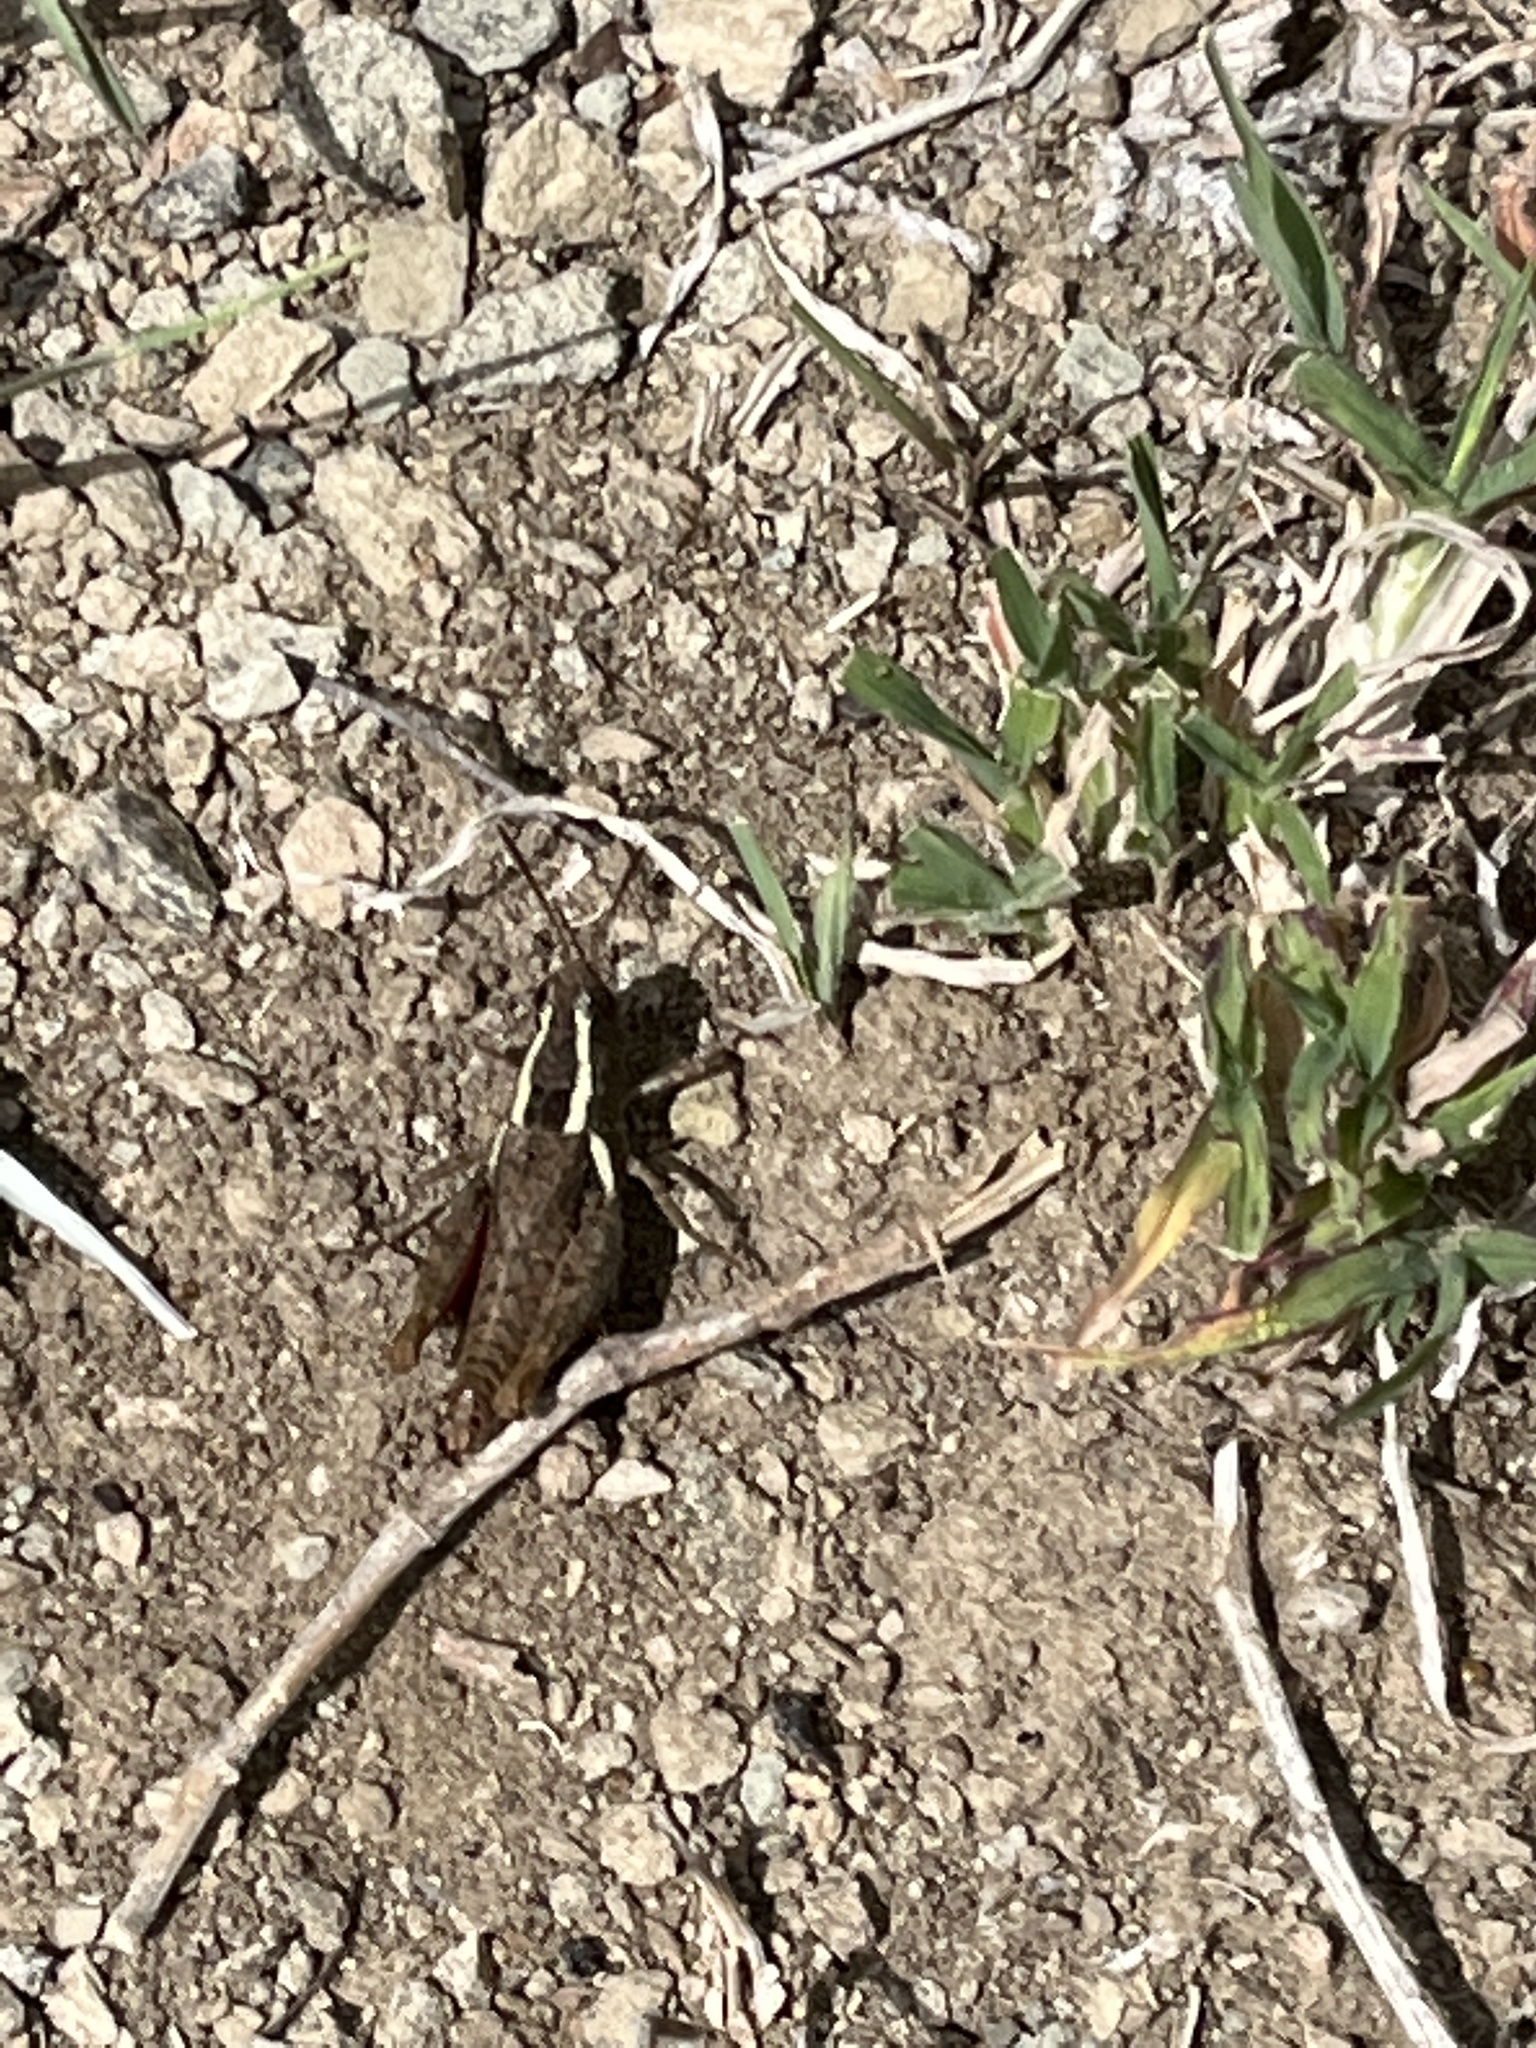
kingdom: Animalia
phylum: Arthropoda
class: Insecta
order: Orthoptera
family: Acrididae
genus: Taramassus
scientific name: Taramassus cunctator
